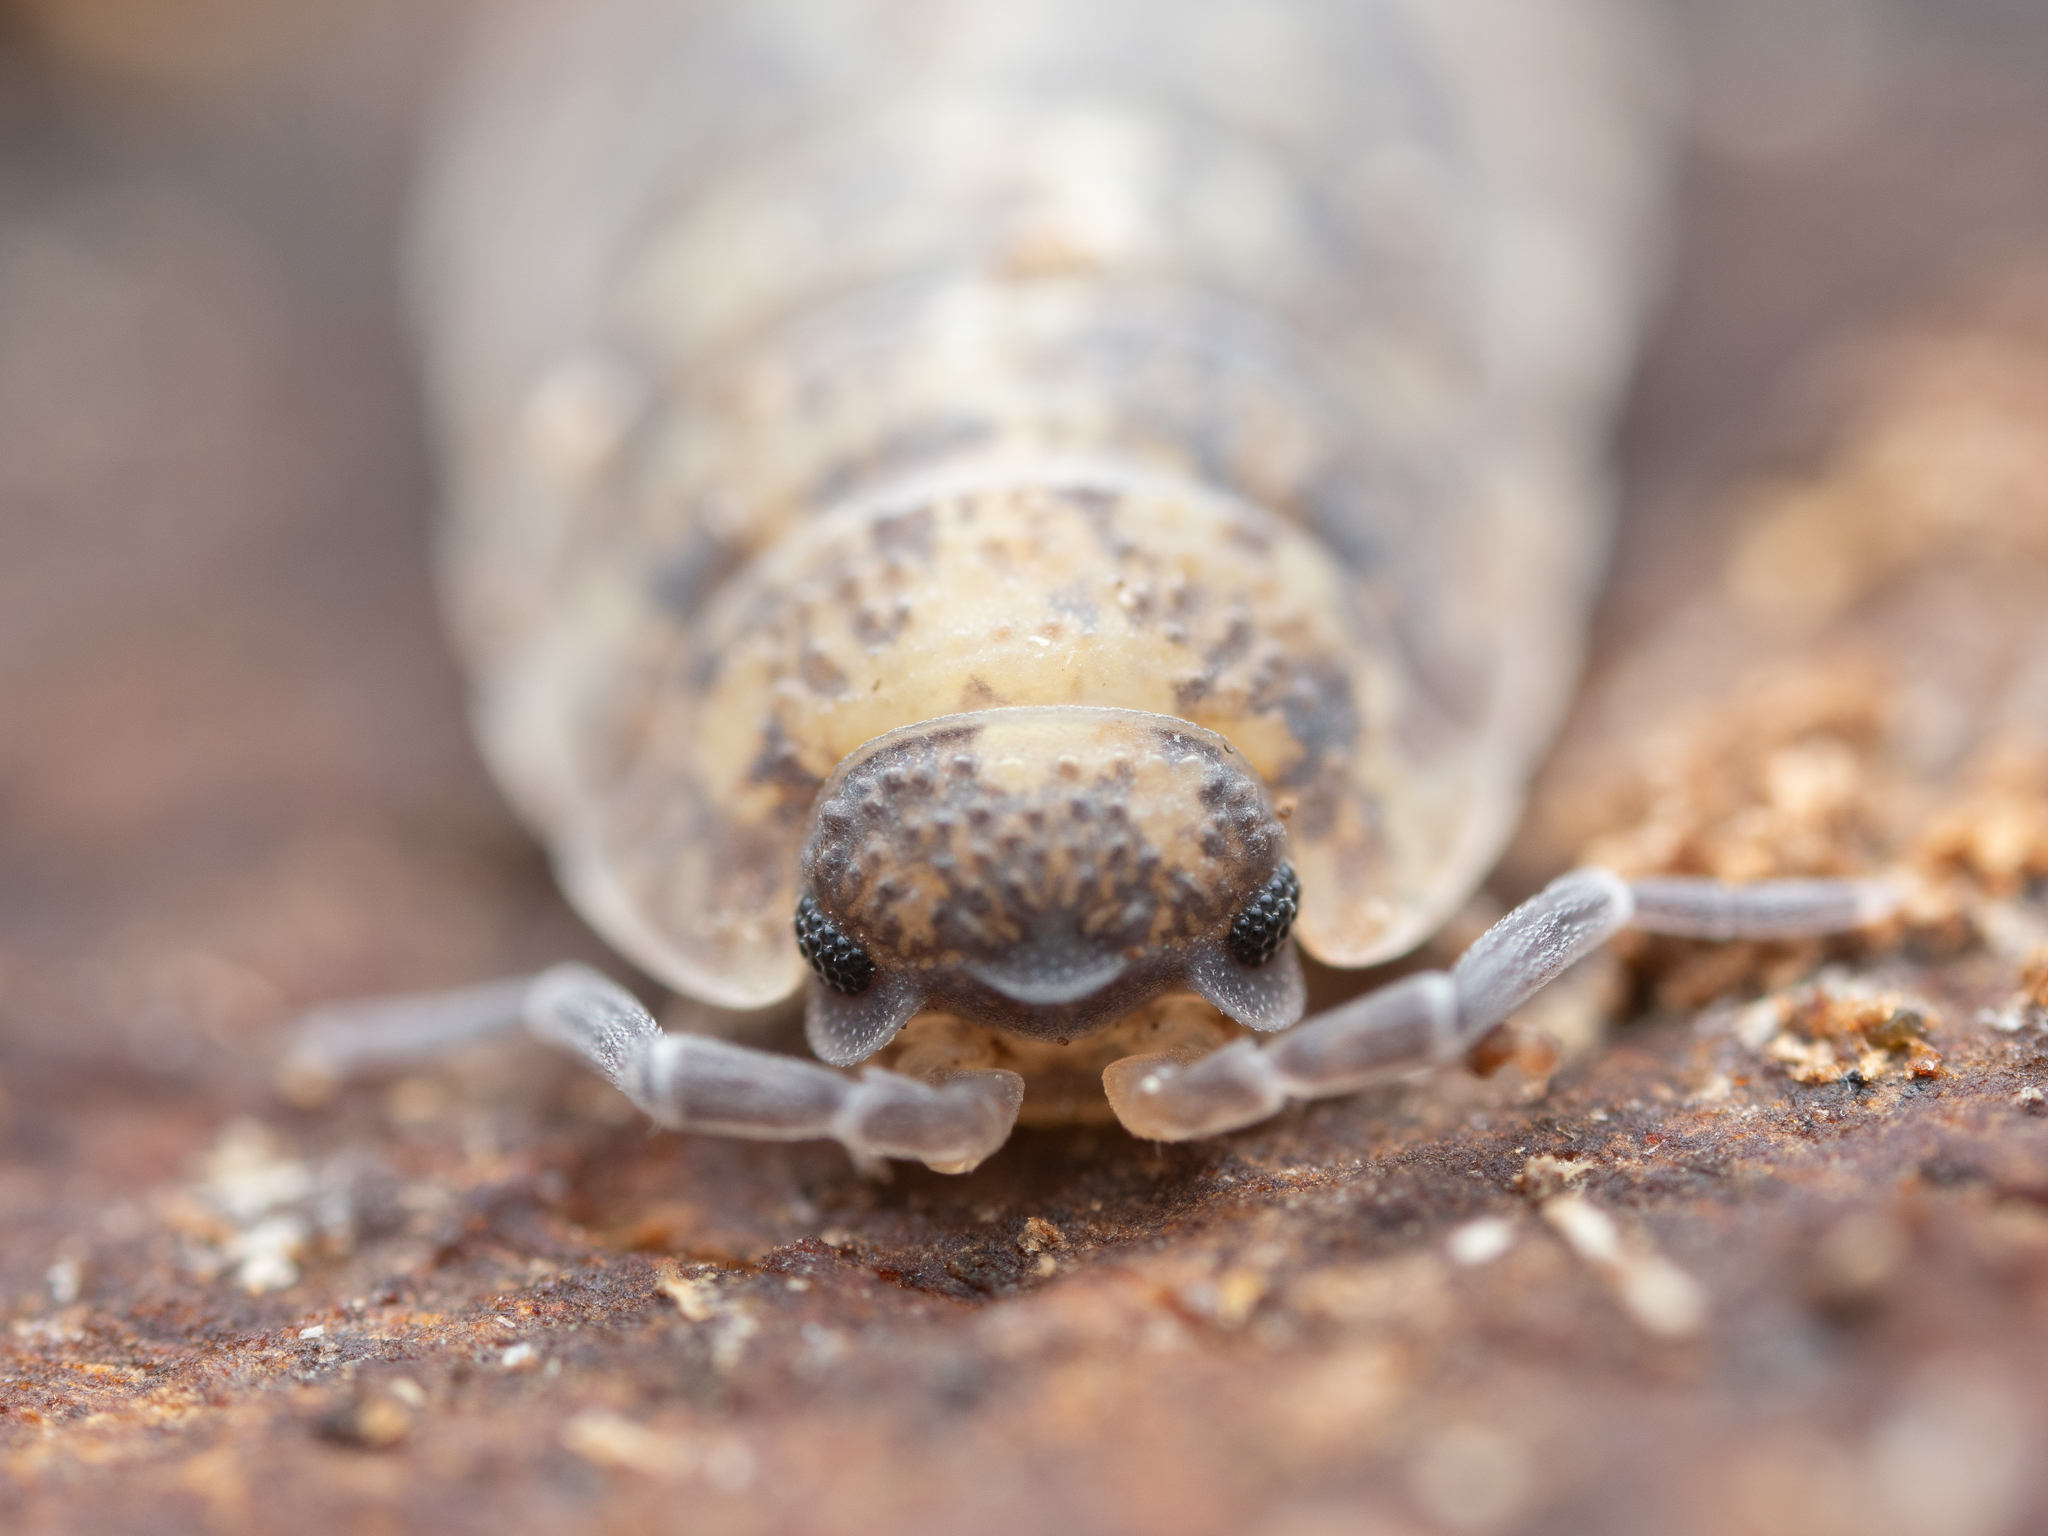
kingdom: Animalia
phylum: Arthropoda
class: Malacostraca
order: Isopoda
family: Porcellionidae
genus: Porcellio
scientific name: Porcellio scaber
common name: Common rough woodlouse
